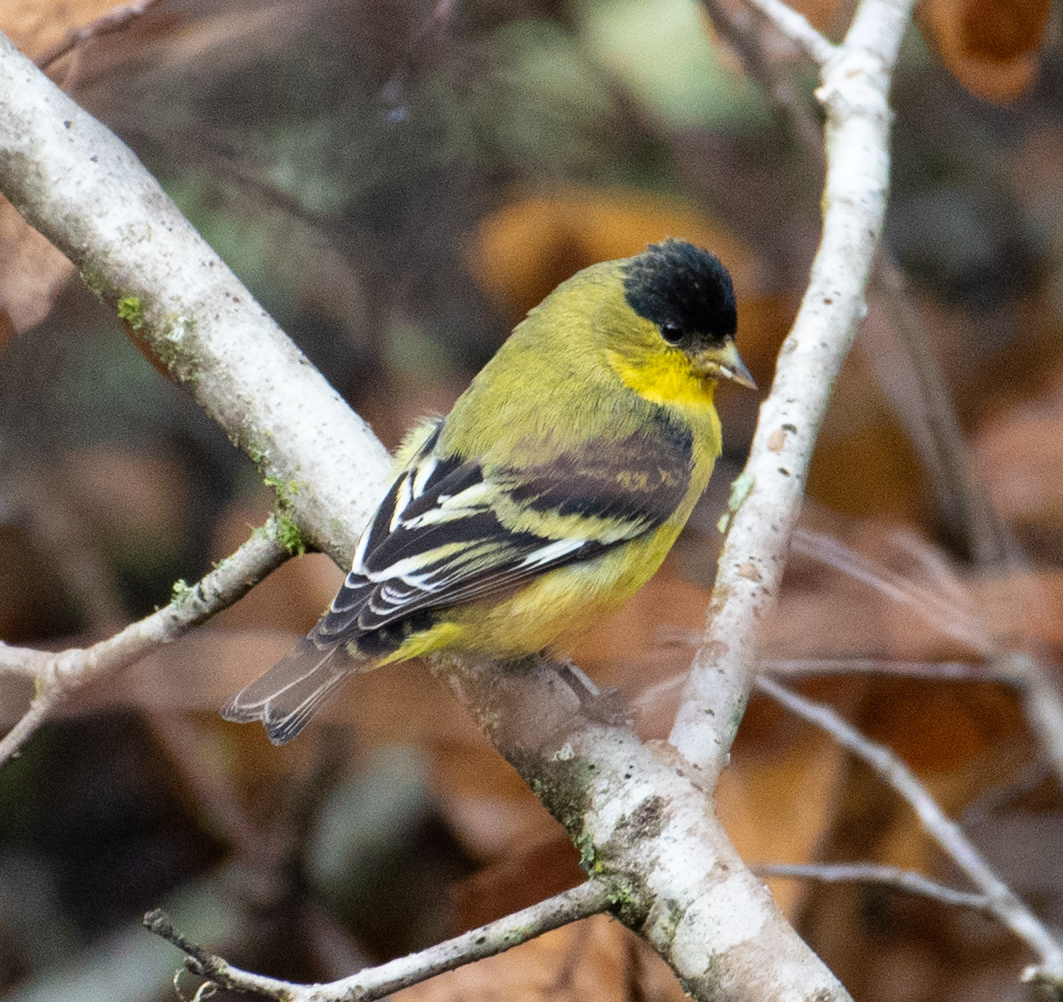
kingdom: Animalia
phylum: Chordata
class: Aves
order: Passeriformes
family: Fringillidae
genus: Spinus
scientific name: Spinus psaltria
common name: Lesser goldfinch
